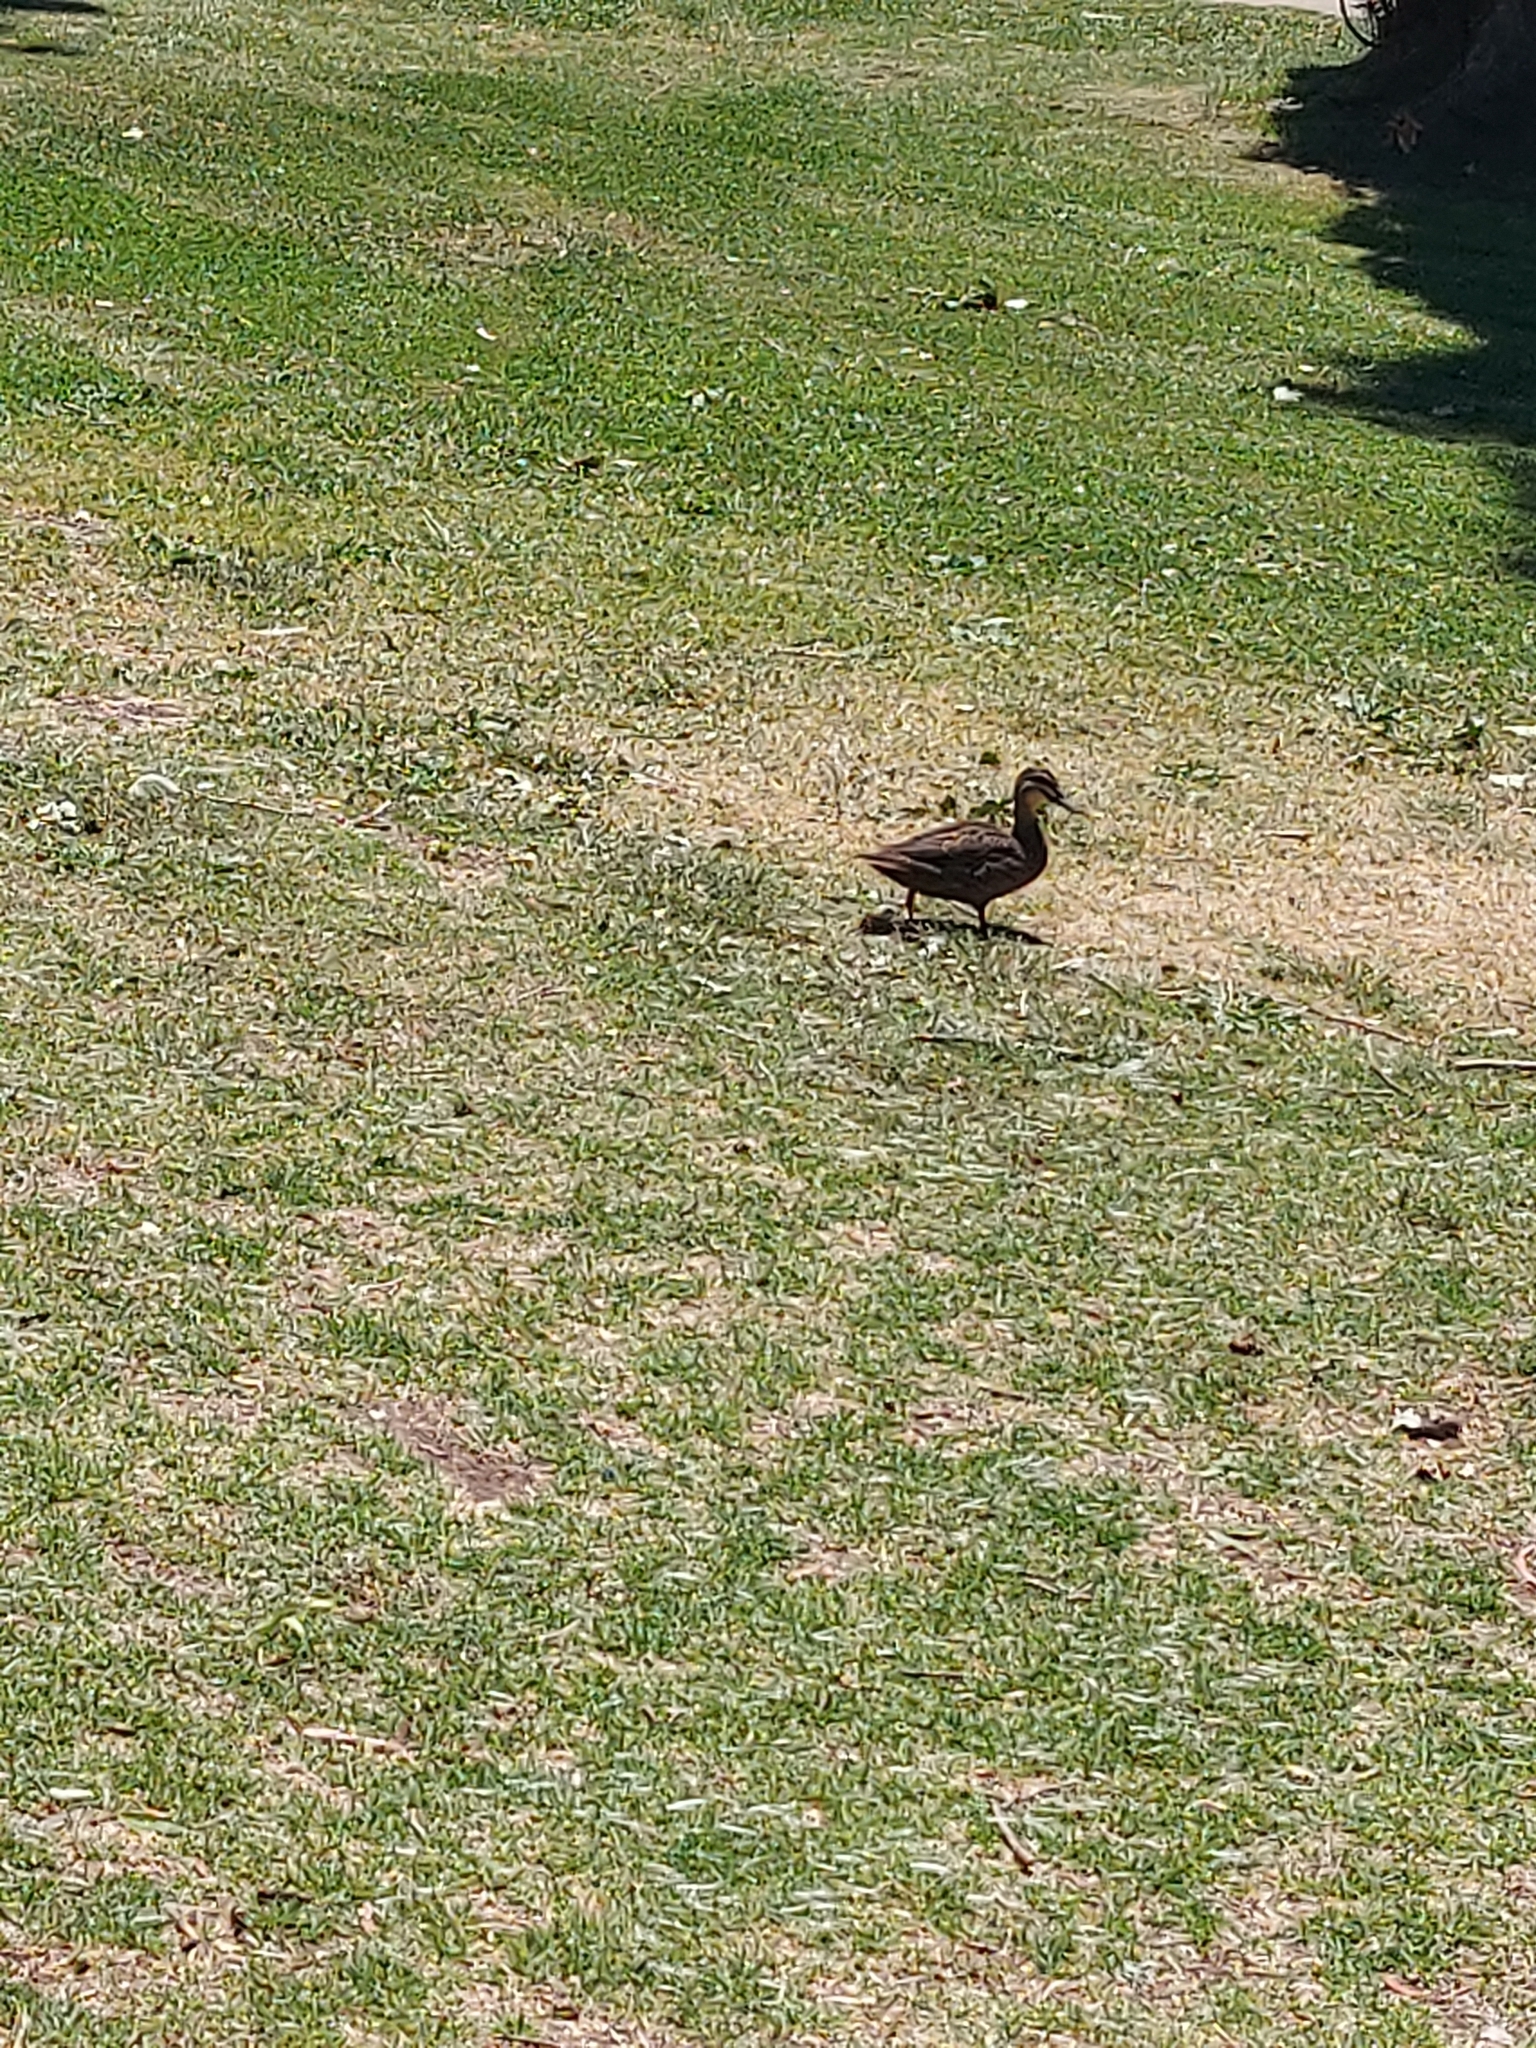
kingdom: Animalia
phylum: Chordata
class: Aves
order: Anseriformes
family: Anatidae
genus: Anas
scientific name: Anas superciliosa
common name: Pacific black duck
